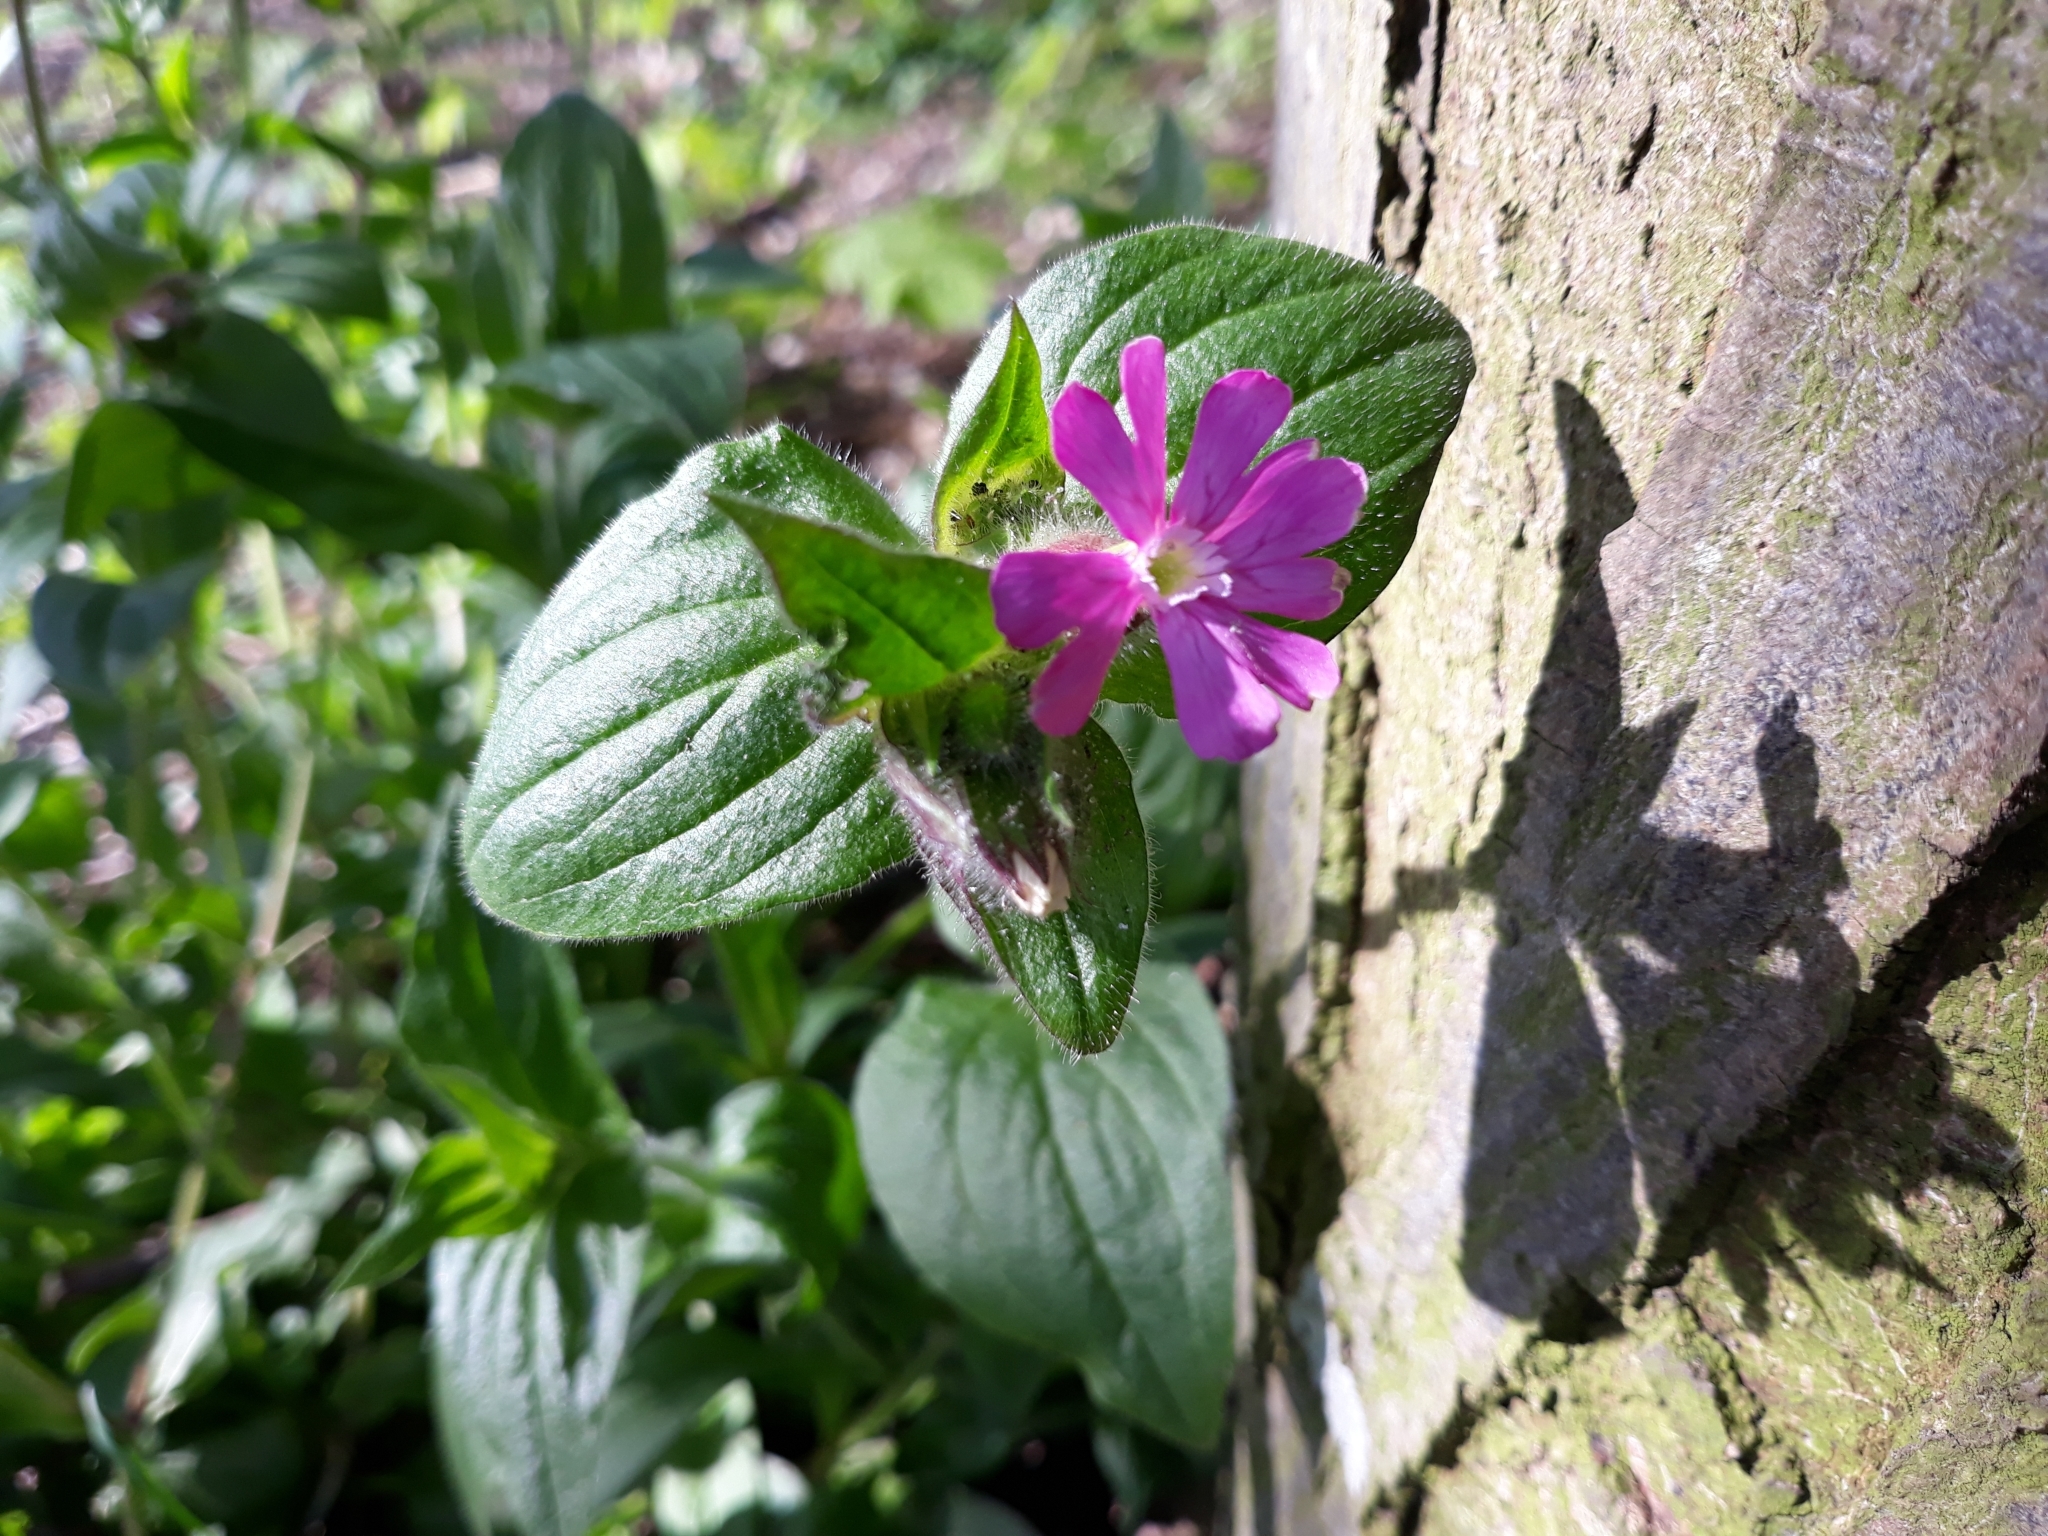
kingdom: Plantae
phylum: Tracheophyta
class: Magnoliopsida
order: Caryophyllales
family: Caryophyllaceae
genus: Silene
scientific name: Silene dioica
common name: Red campion
